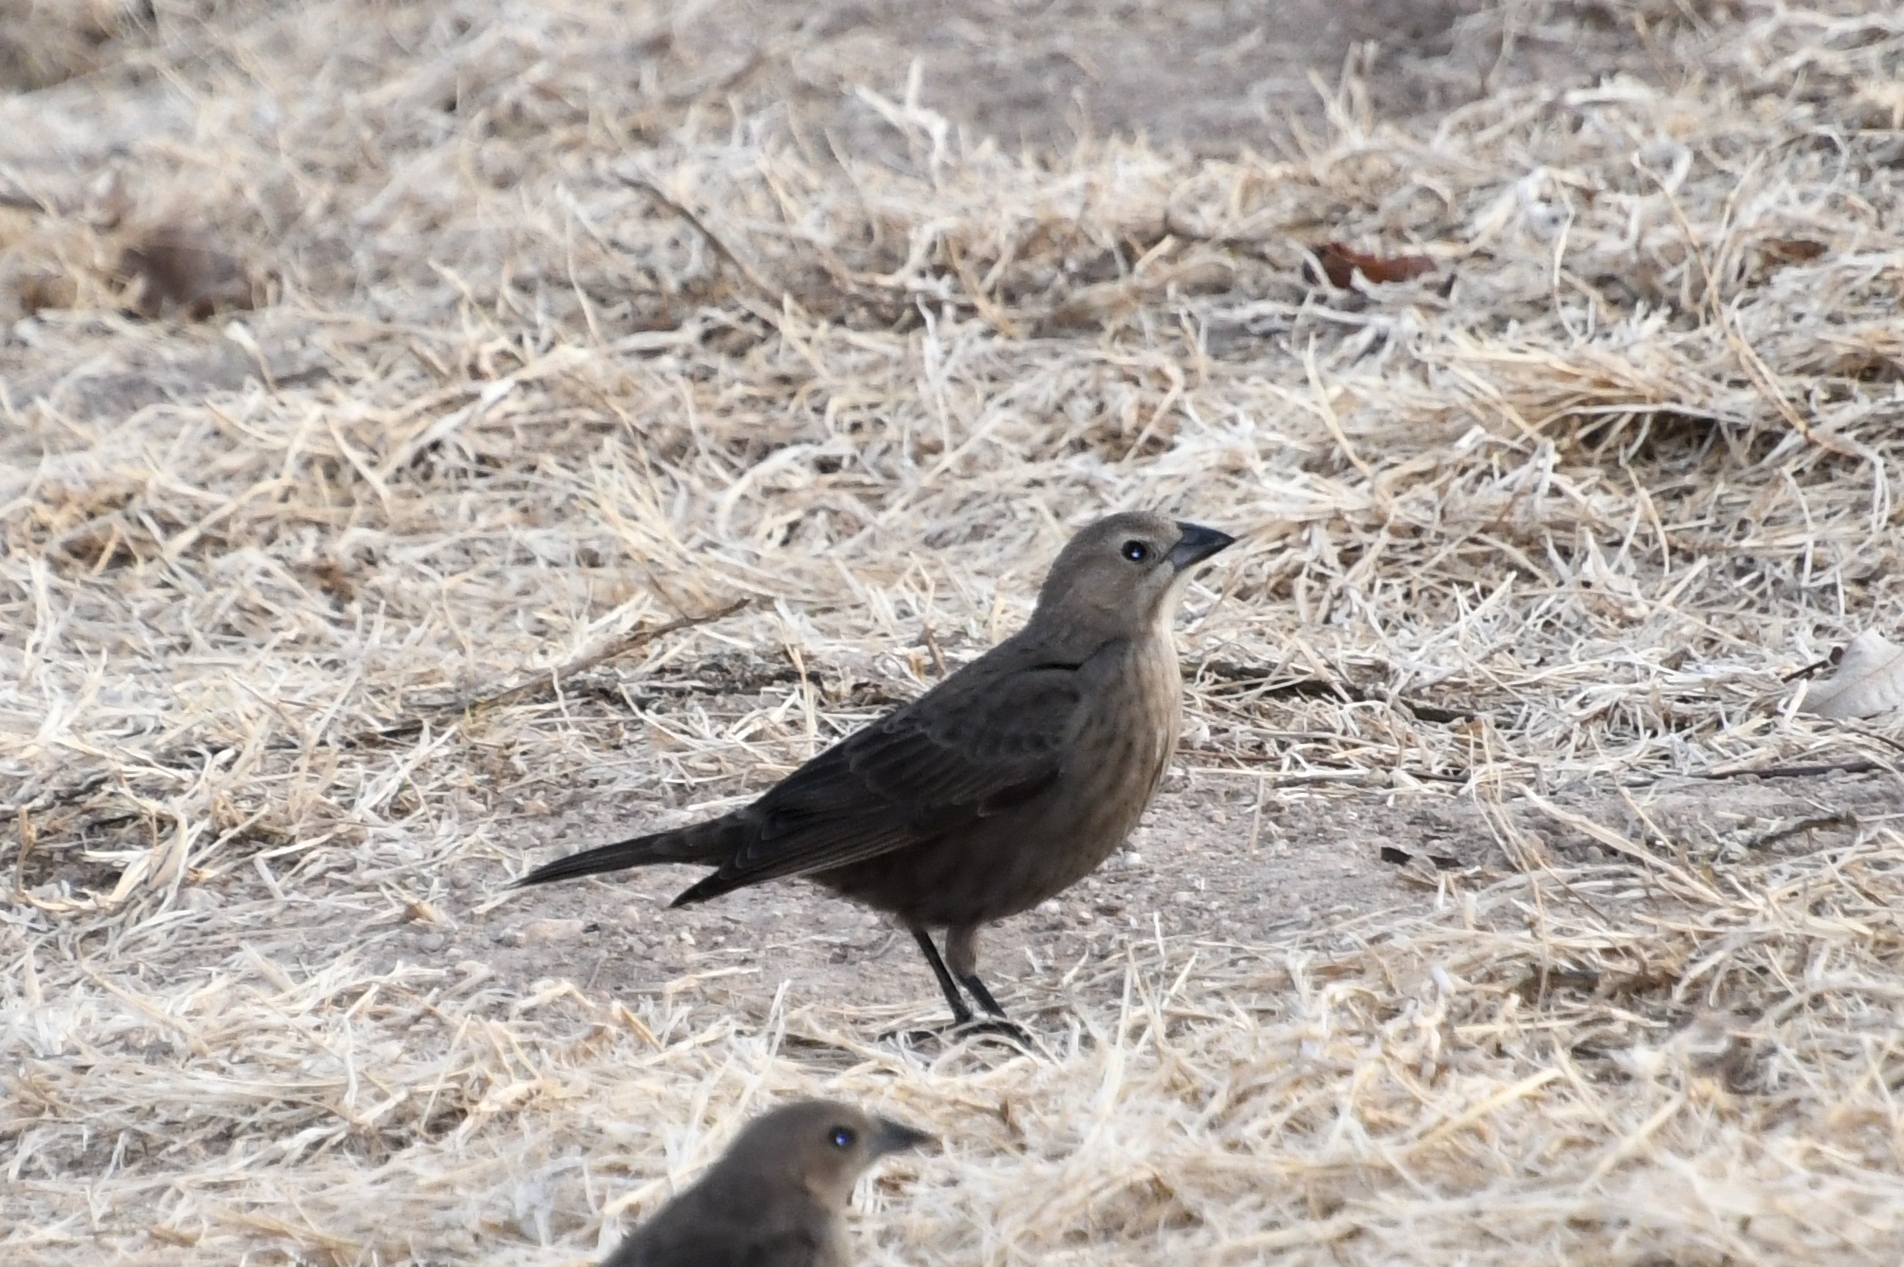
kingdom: Animalia
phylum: Chordata
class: Aves
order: Passeriformes
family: Icteridae
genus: Molothrus
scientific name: Molothrus ater
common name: Brown-headed cowbird
